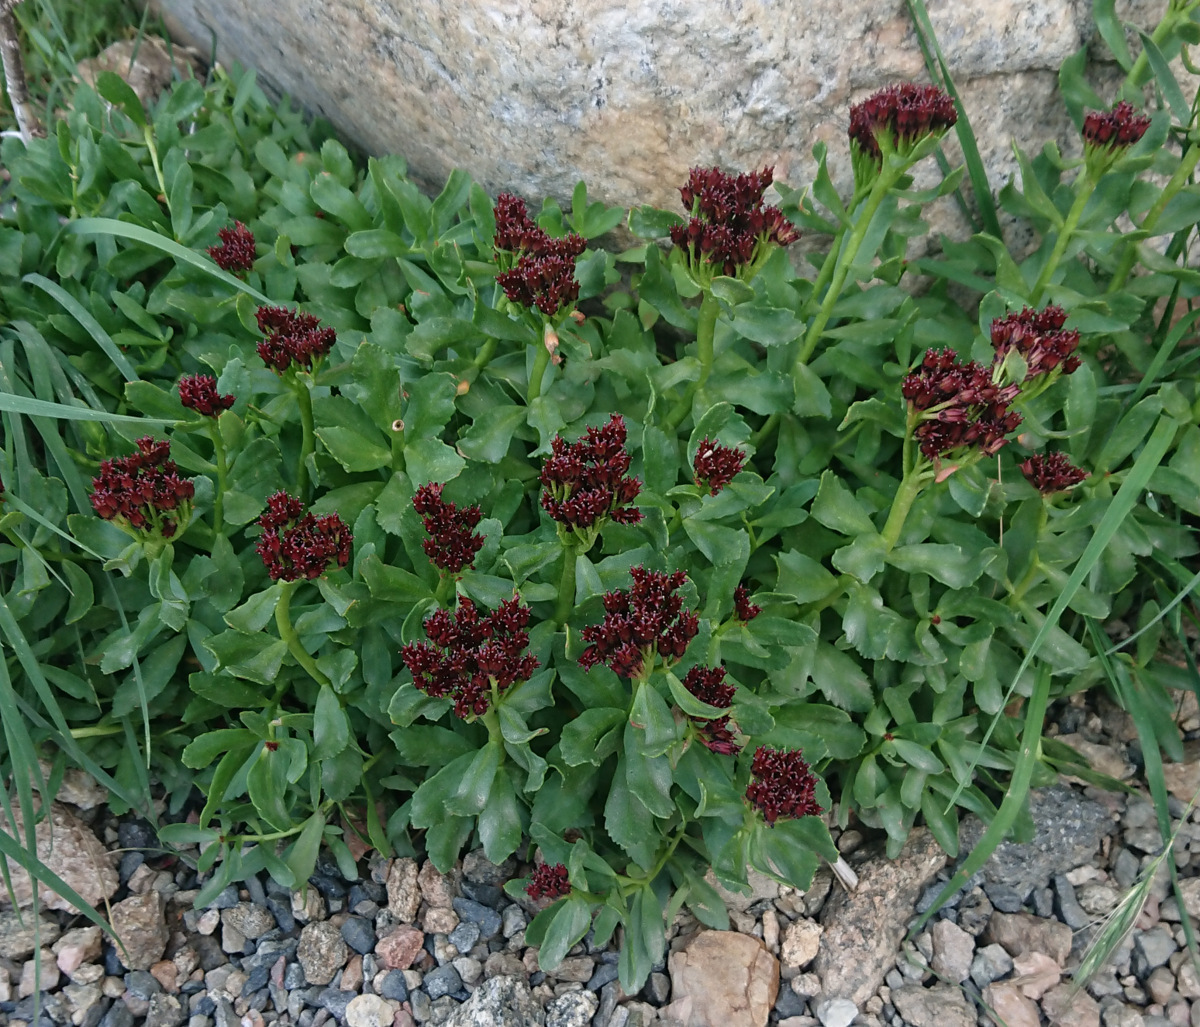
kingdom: Plantae
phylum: Tracheophyta
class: Magnoliopsida
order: Saxifragales
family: Crassulaceae
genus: Rhodiola
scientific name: Rhodiola integrifolia
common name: Western roseroot
